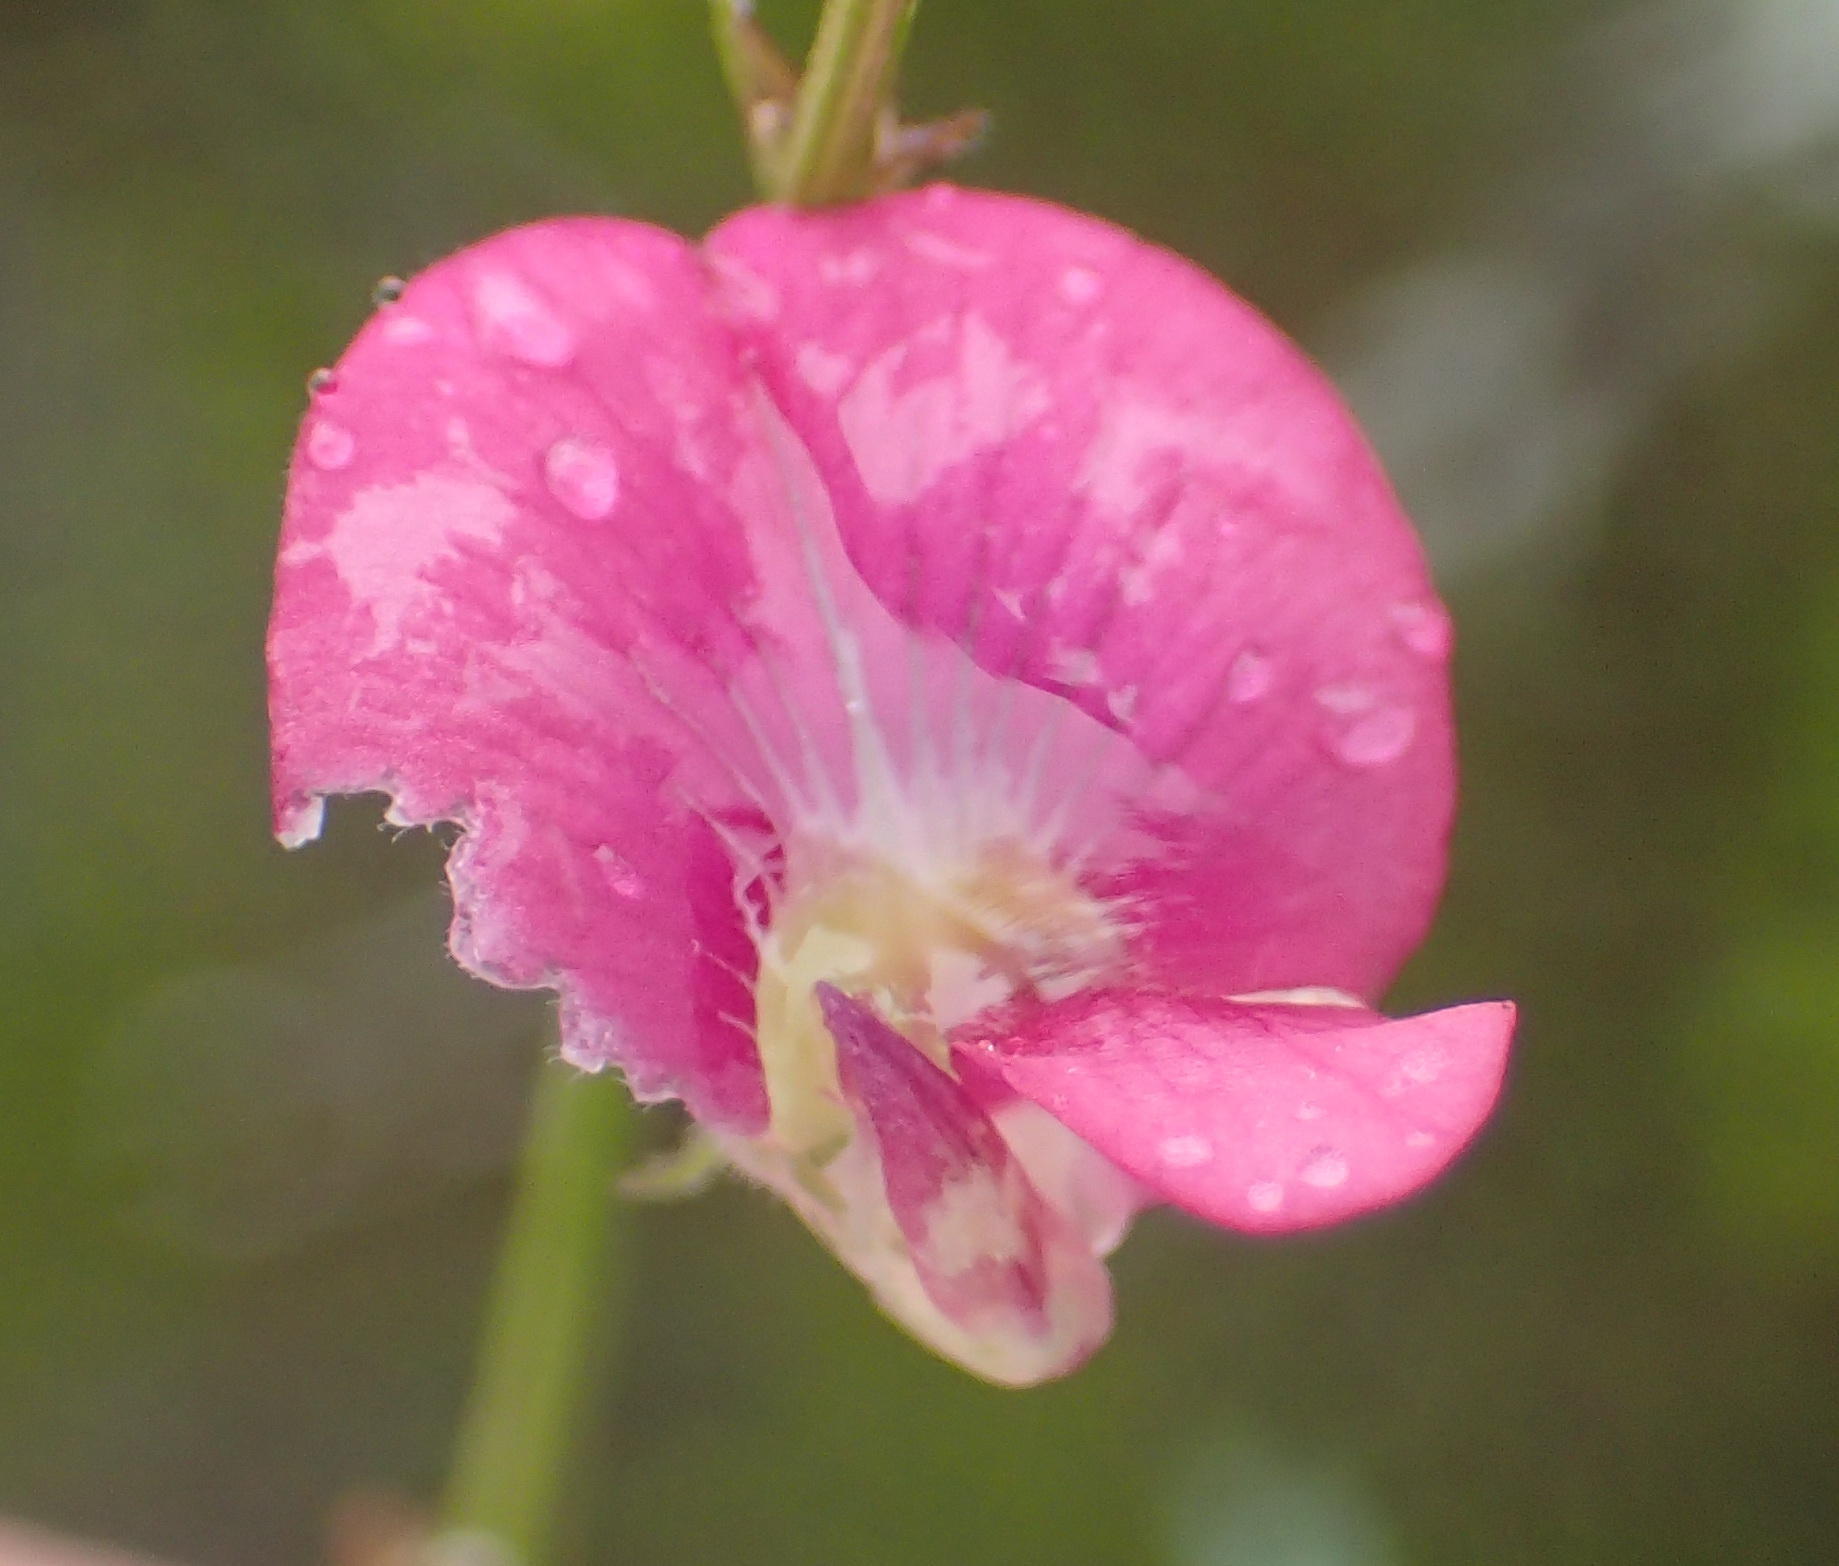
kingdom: Plantae
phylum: Tracheophyta
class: Magnoliopsida
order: Fabales
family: Fabaceae
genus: Tephrosia
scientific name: Tephrosia capensis
